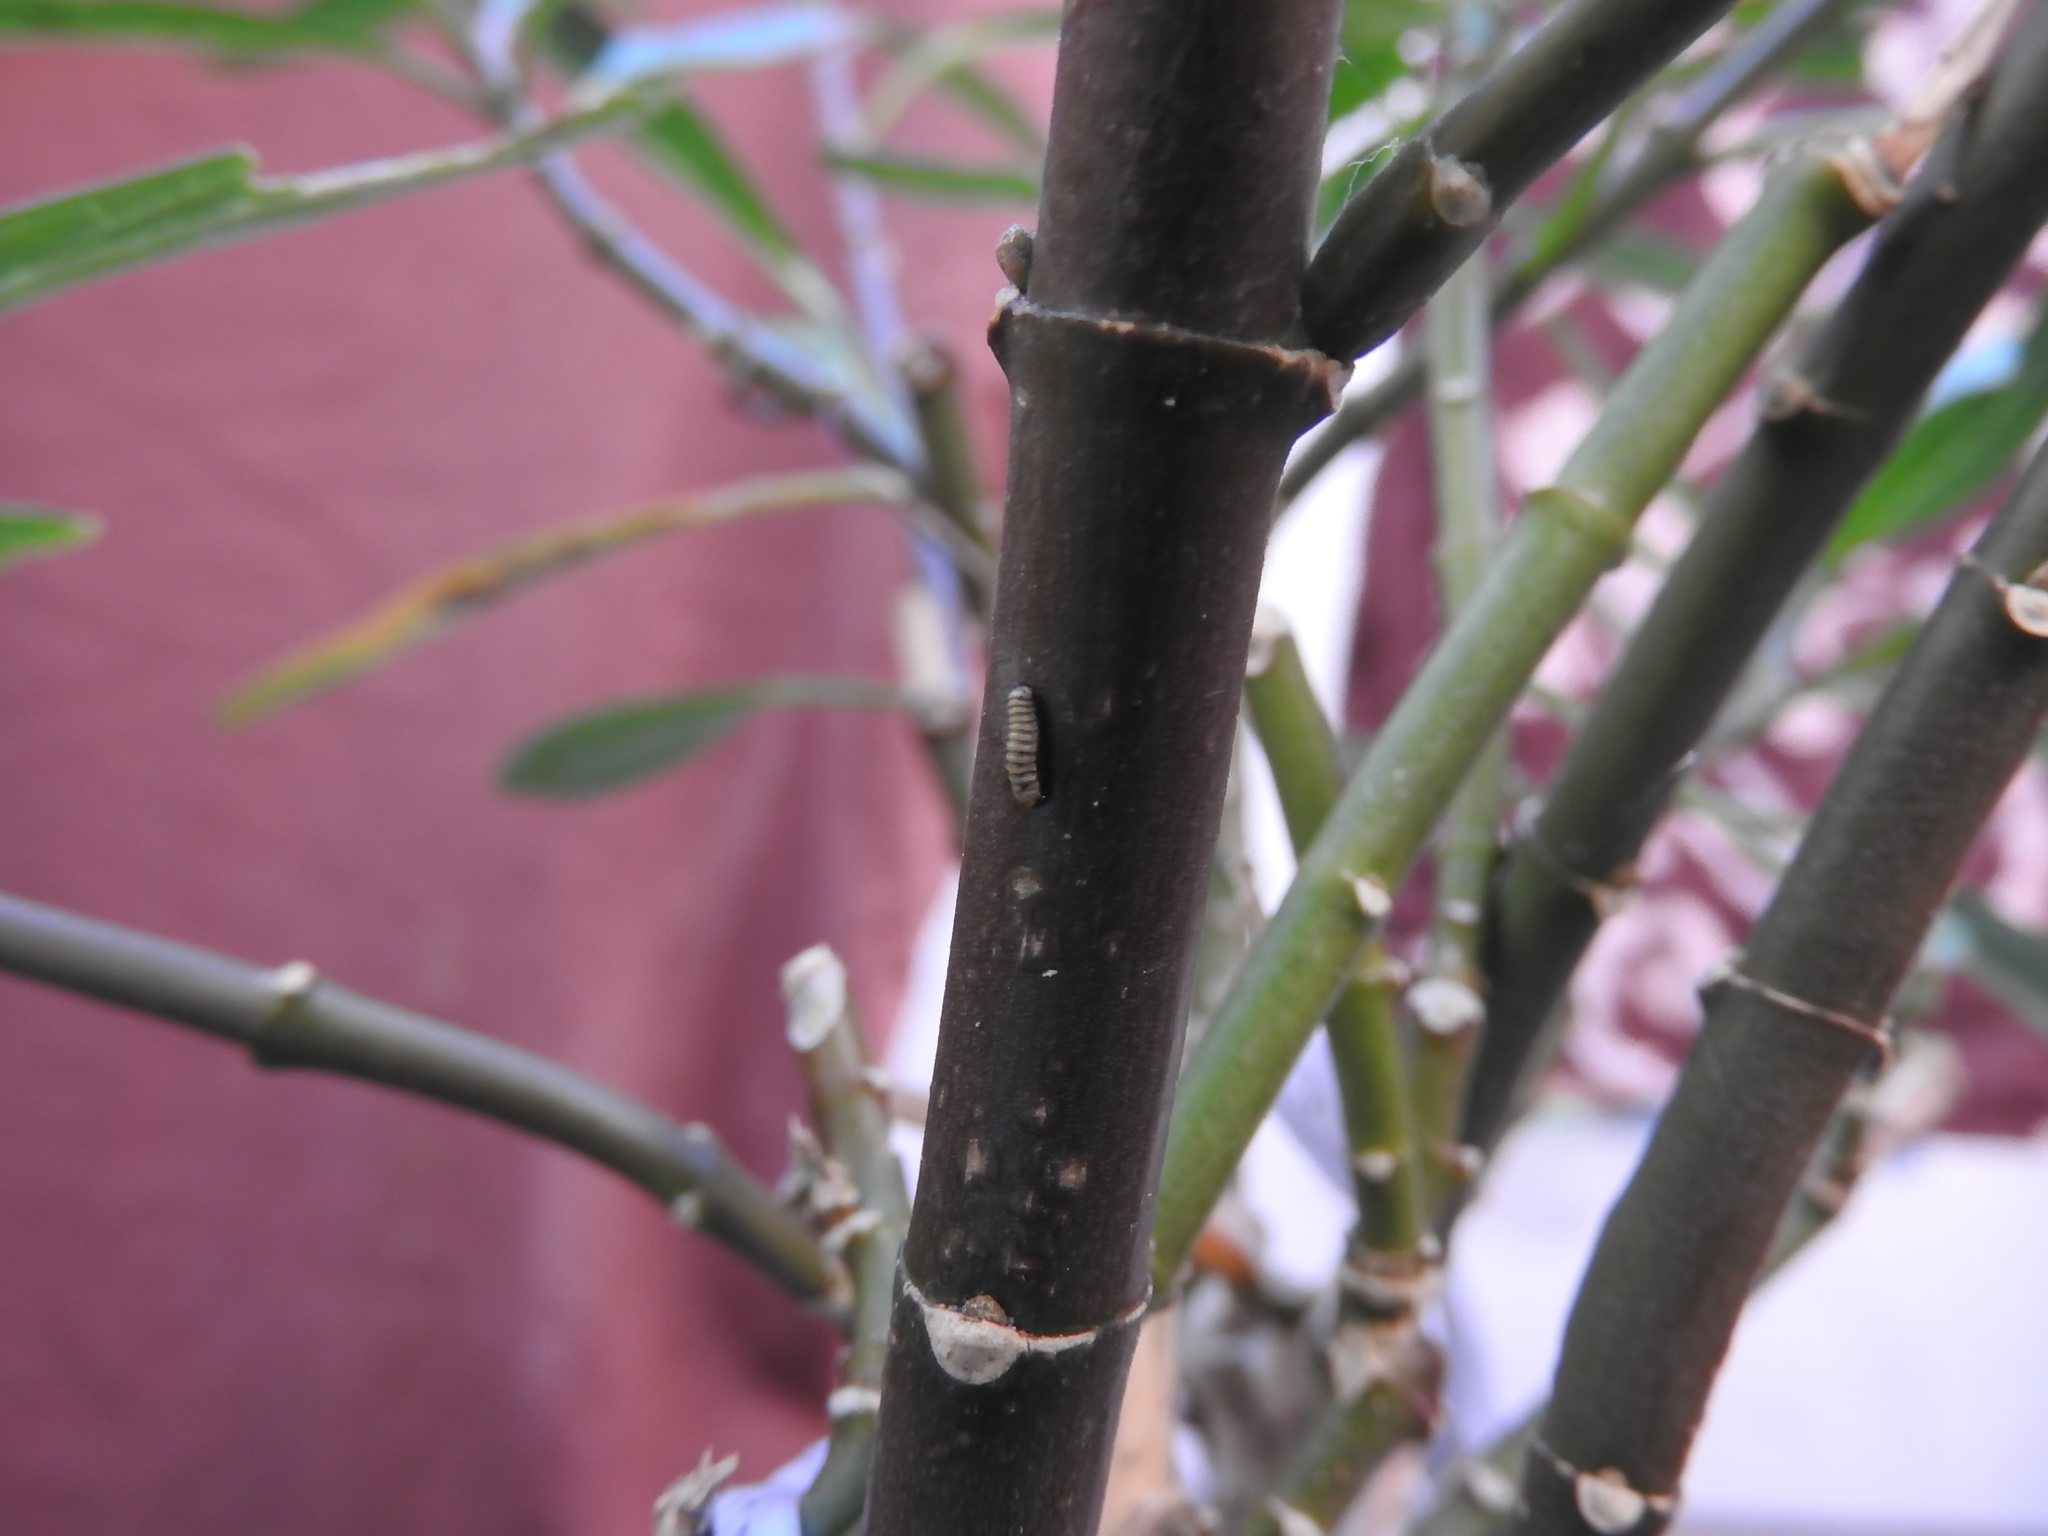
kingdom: Animalia
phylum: Arthropoda
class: Insecta
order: Lepidoptera
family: Nymphalidae
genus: Danaus
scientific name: Danaus plexippus
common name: Monarch
